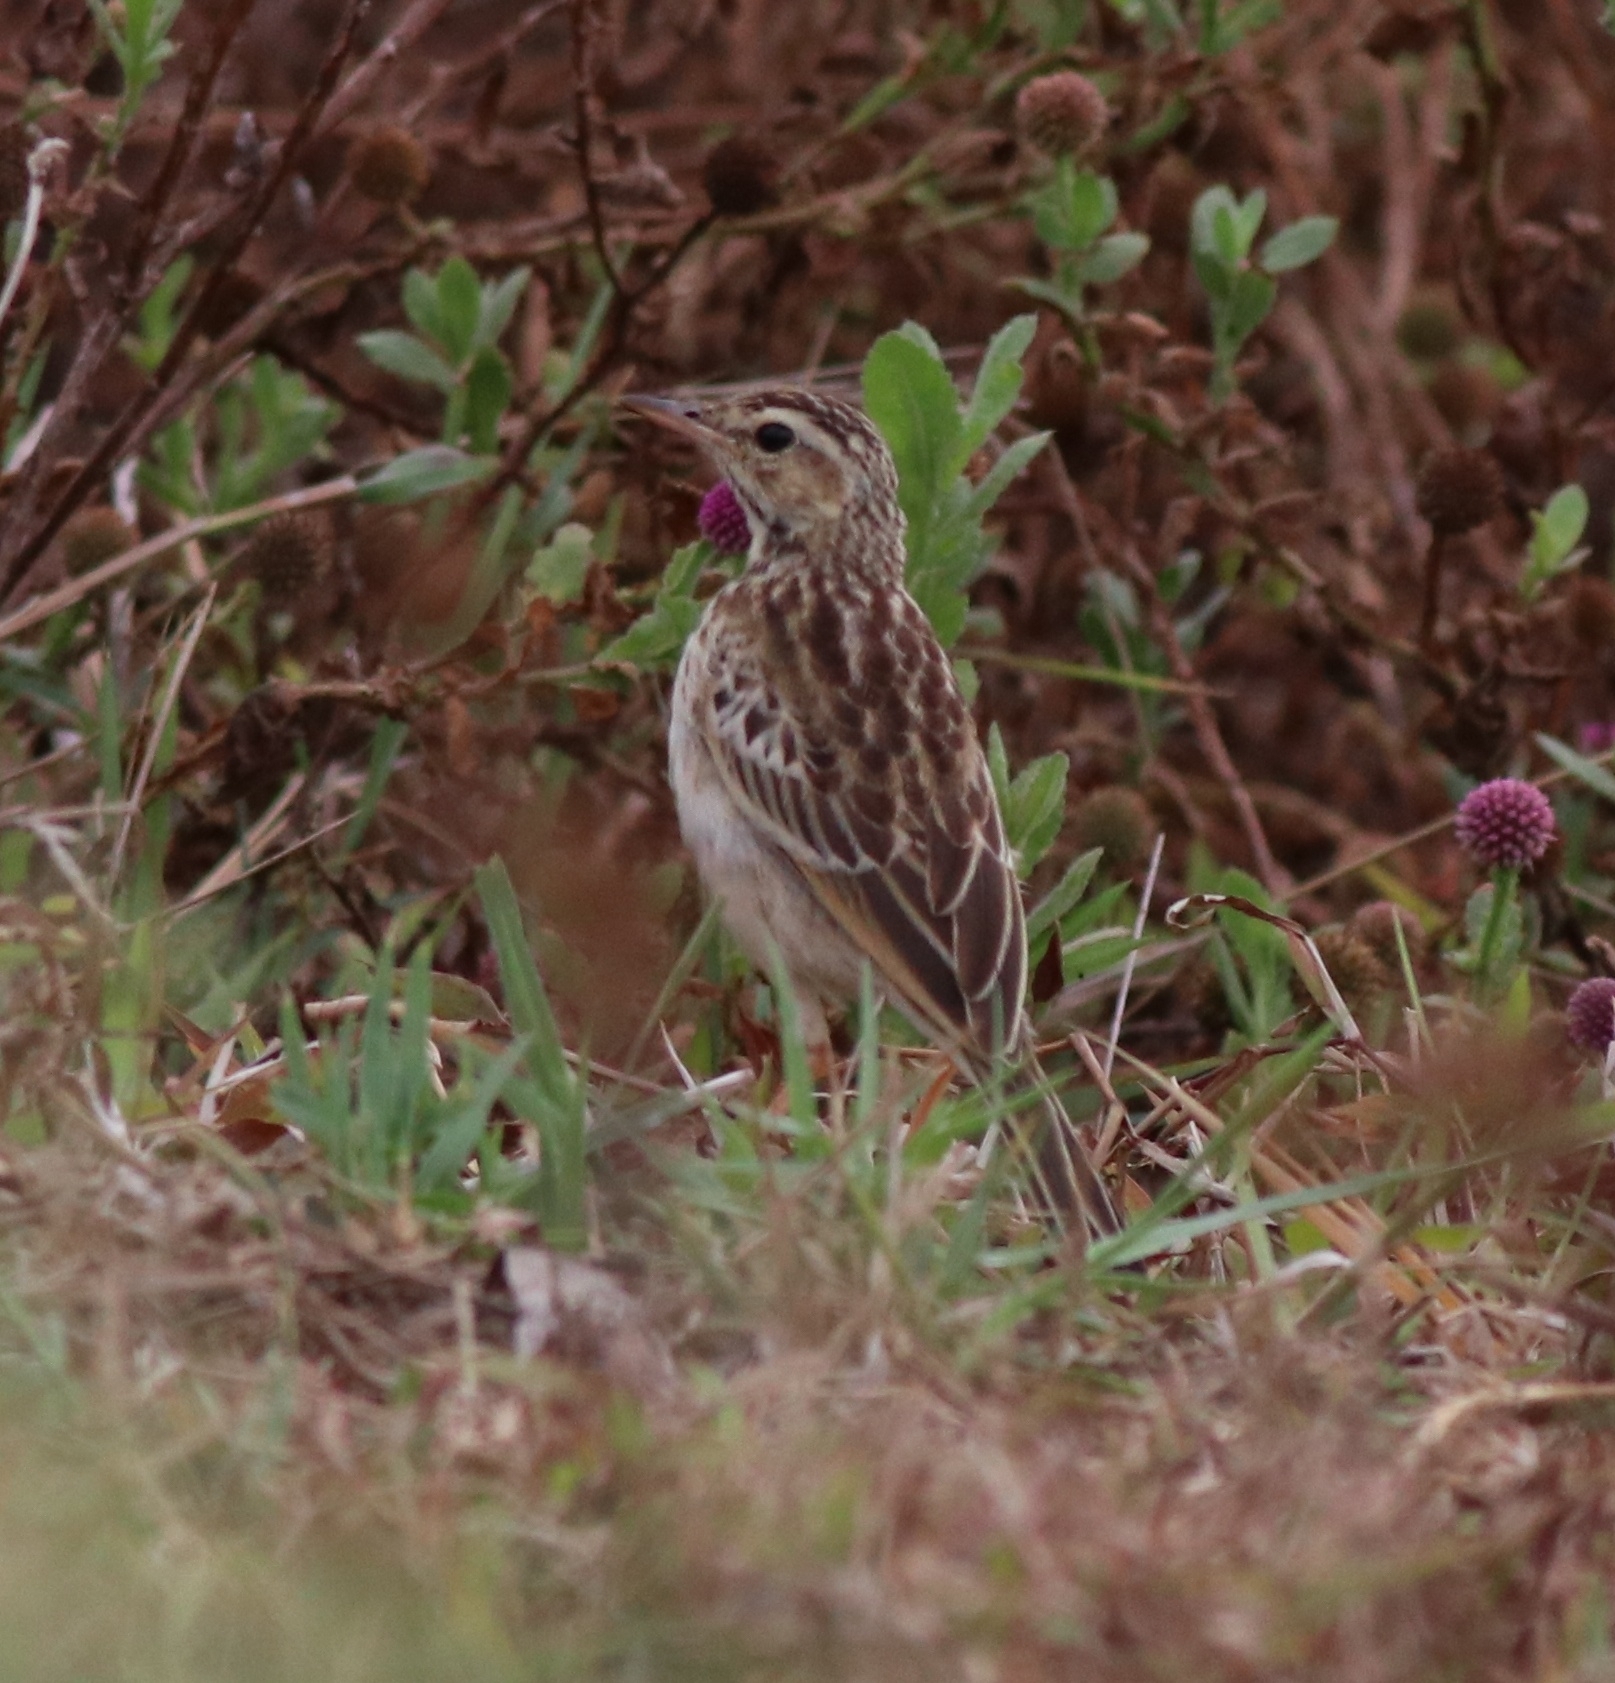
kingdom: Animalia
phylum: Chordata
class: Aves
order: Passeriformes
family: Motacillidae
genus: Anthus
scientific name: Anthus rufulus
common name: Paddyfield pipit
